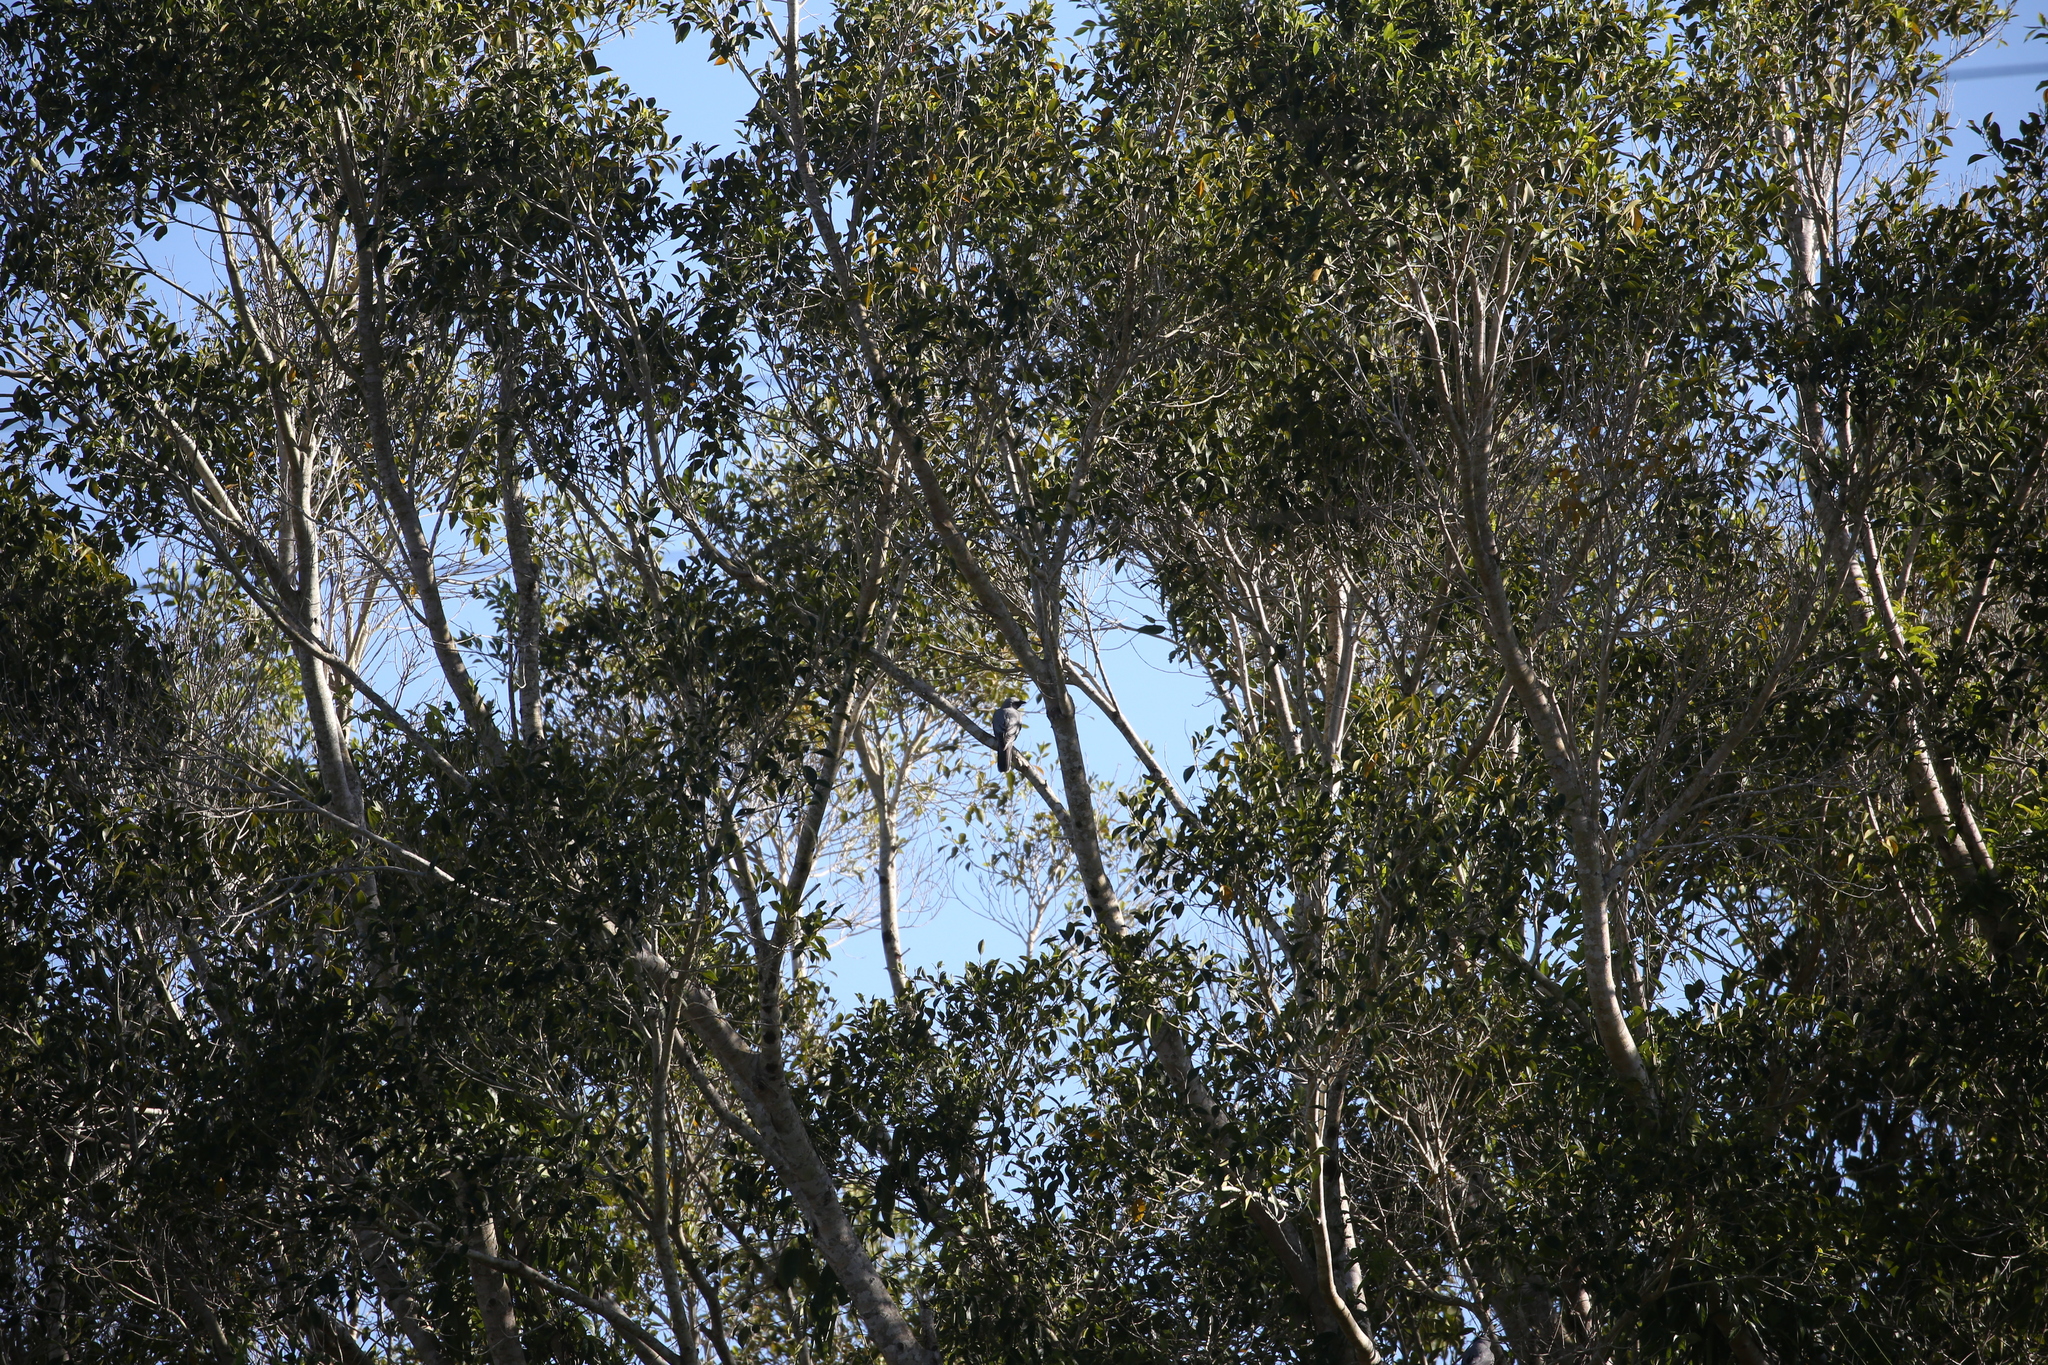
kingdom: Animalia
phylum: Chordata
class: Aves
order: Passeriformes
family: Campephagidae
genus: Coracina
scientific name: Coracina novaehollandiae
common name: Black-faced cuckooshrike
